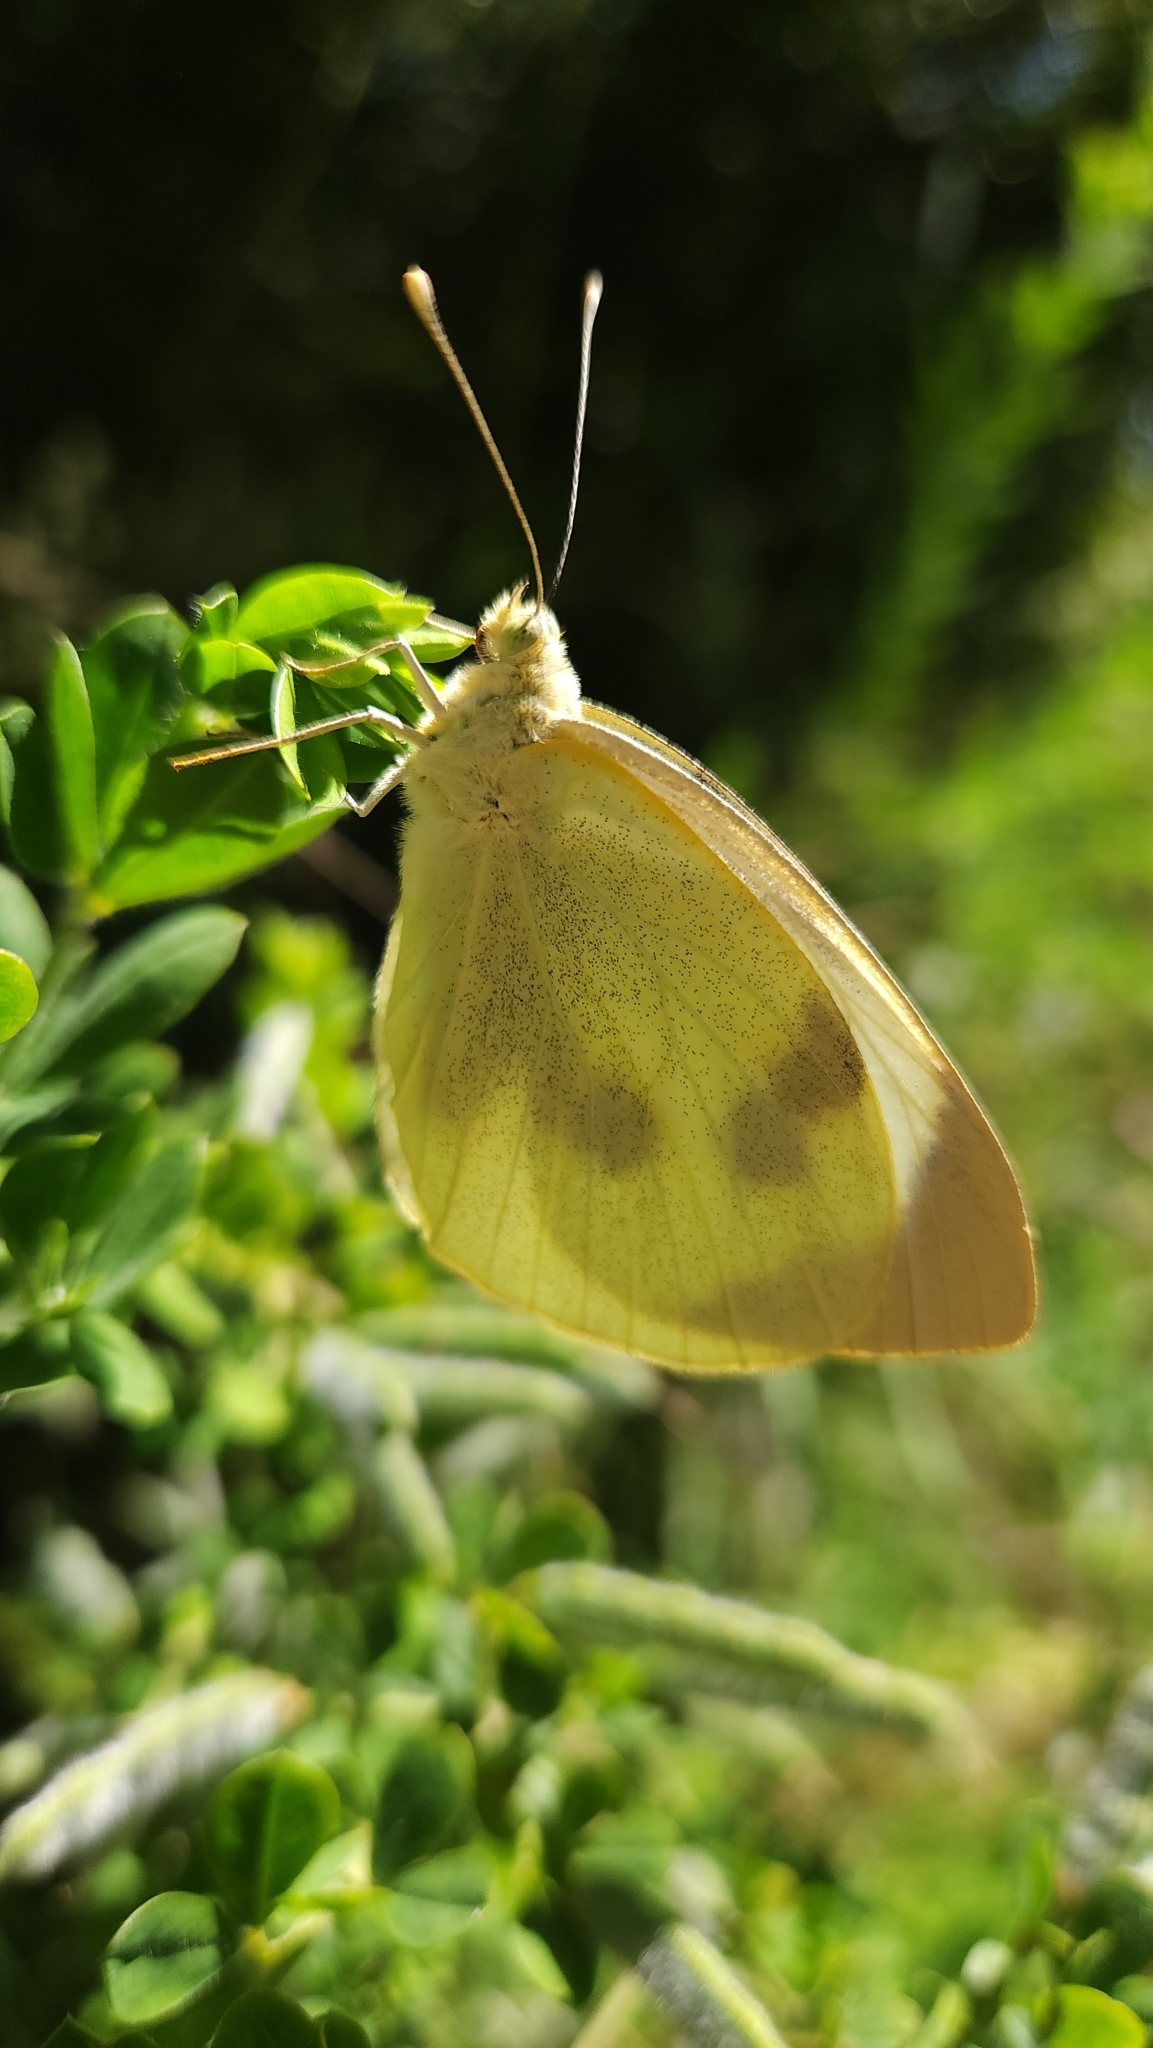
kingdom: Animalia
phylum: Arthropoda
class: Insecta
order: Lepidoptera
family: Pieridae
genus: Pieris
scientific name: Pieris brassicae
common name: Large white
